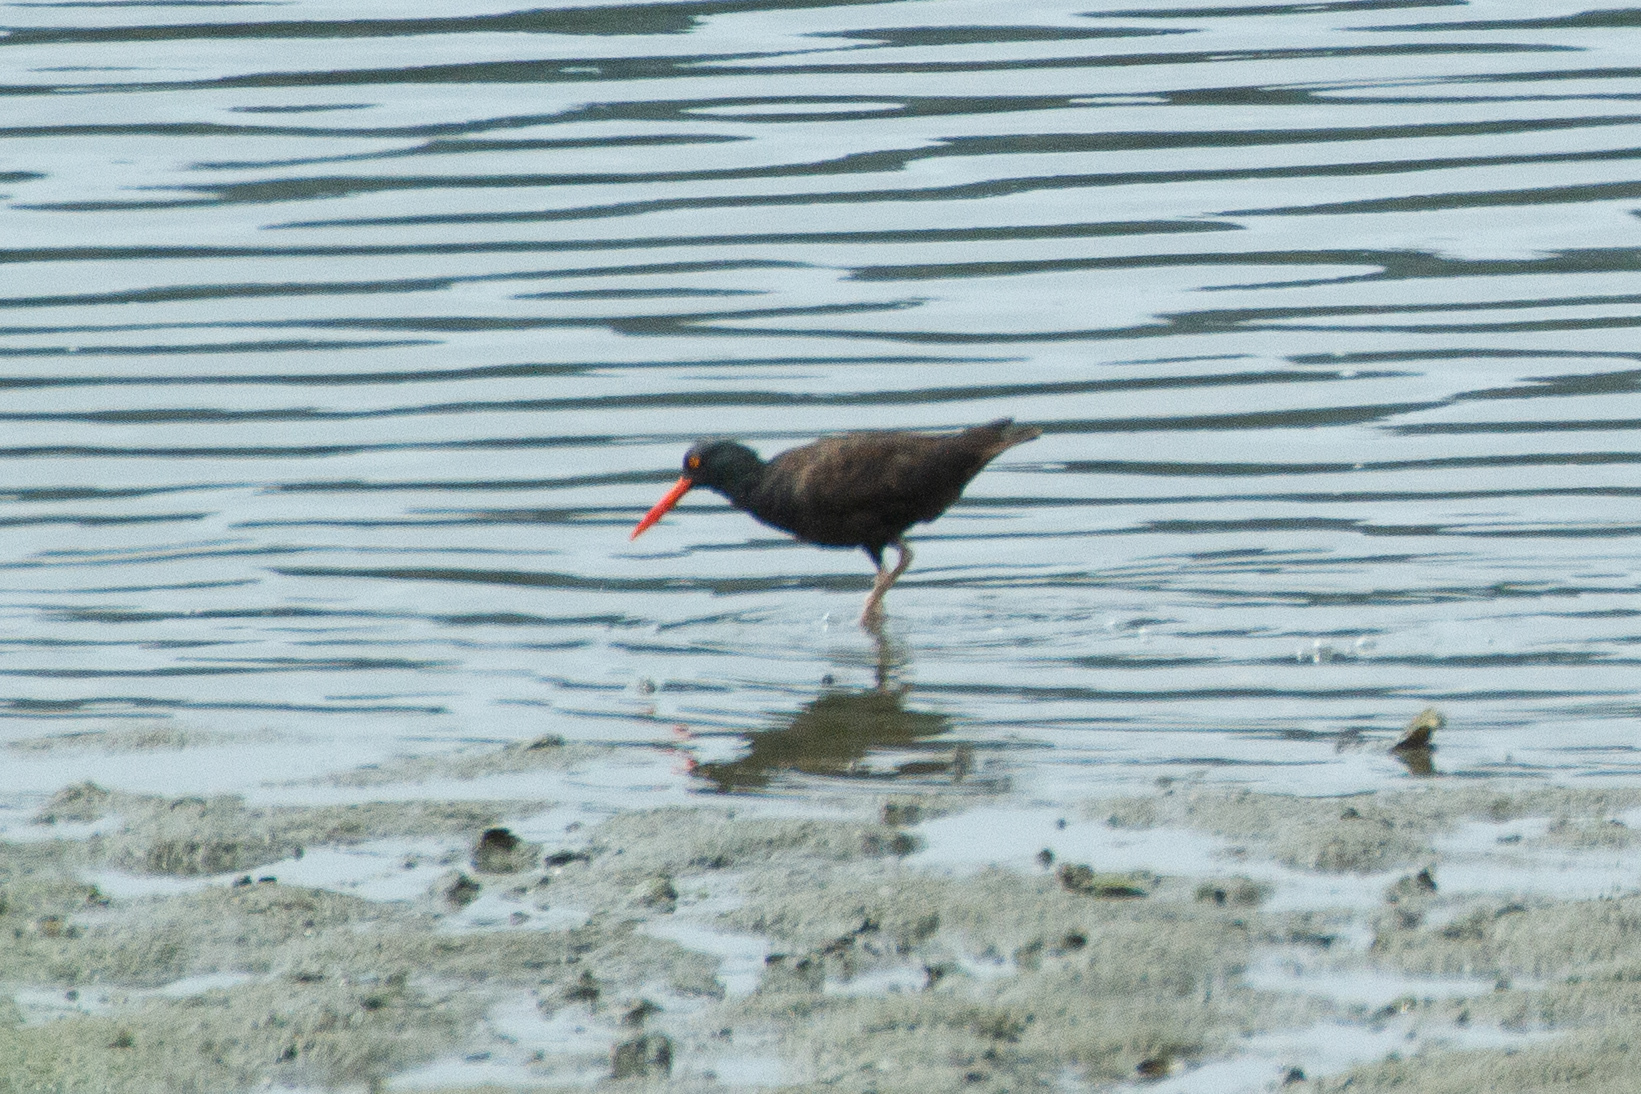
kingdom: Animalia
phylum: Chordata
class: Aves
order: Charadriiformes
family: Haematopodidae
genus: Haematopus
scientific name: Haematopus bachmani
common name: Black oystercatcher
